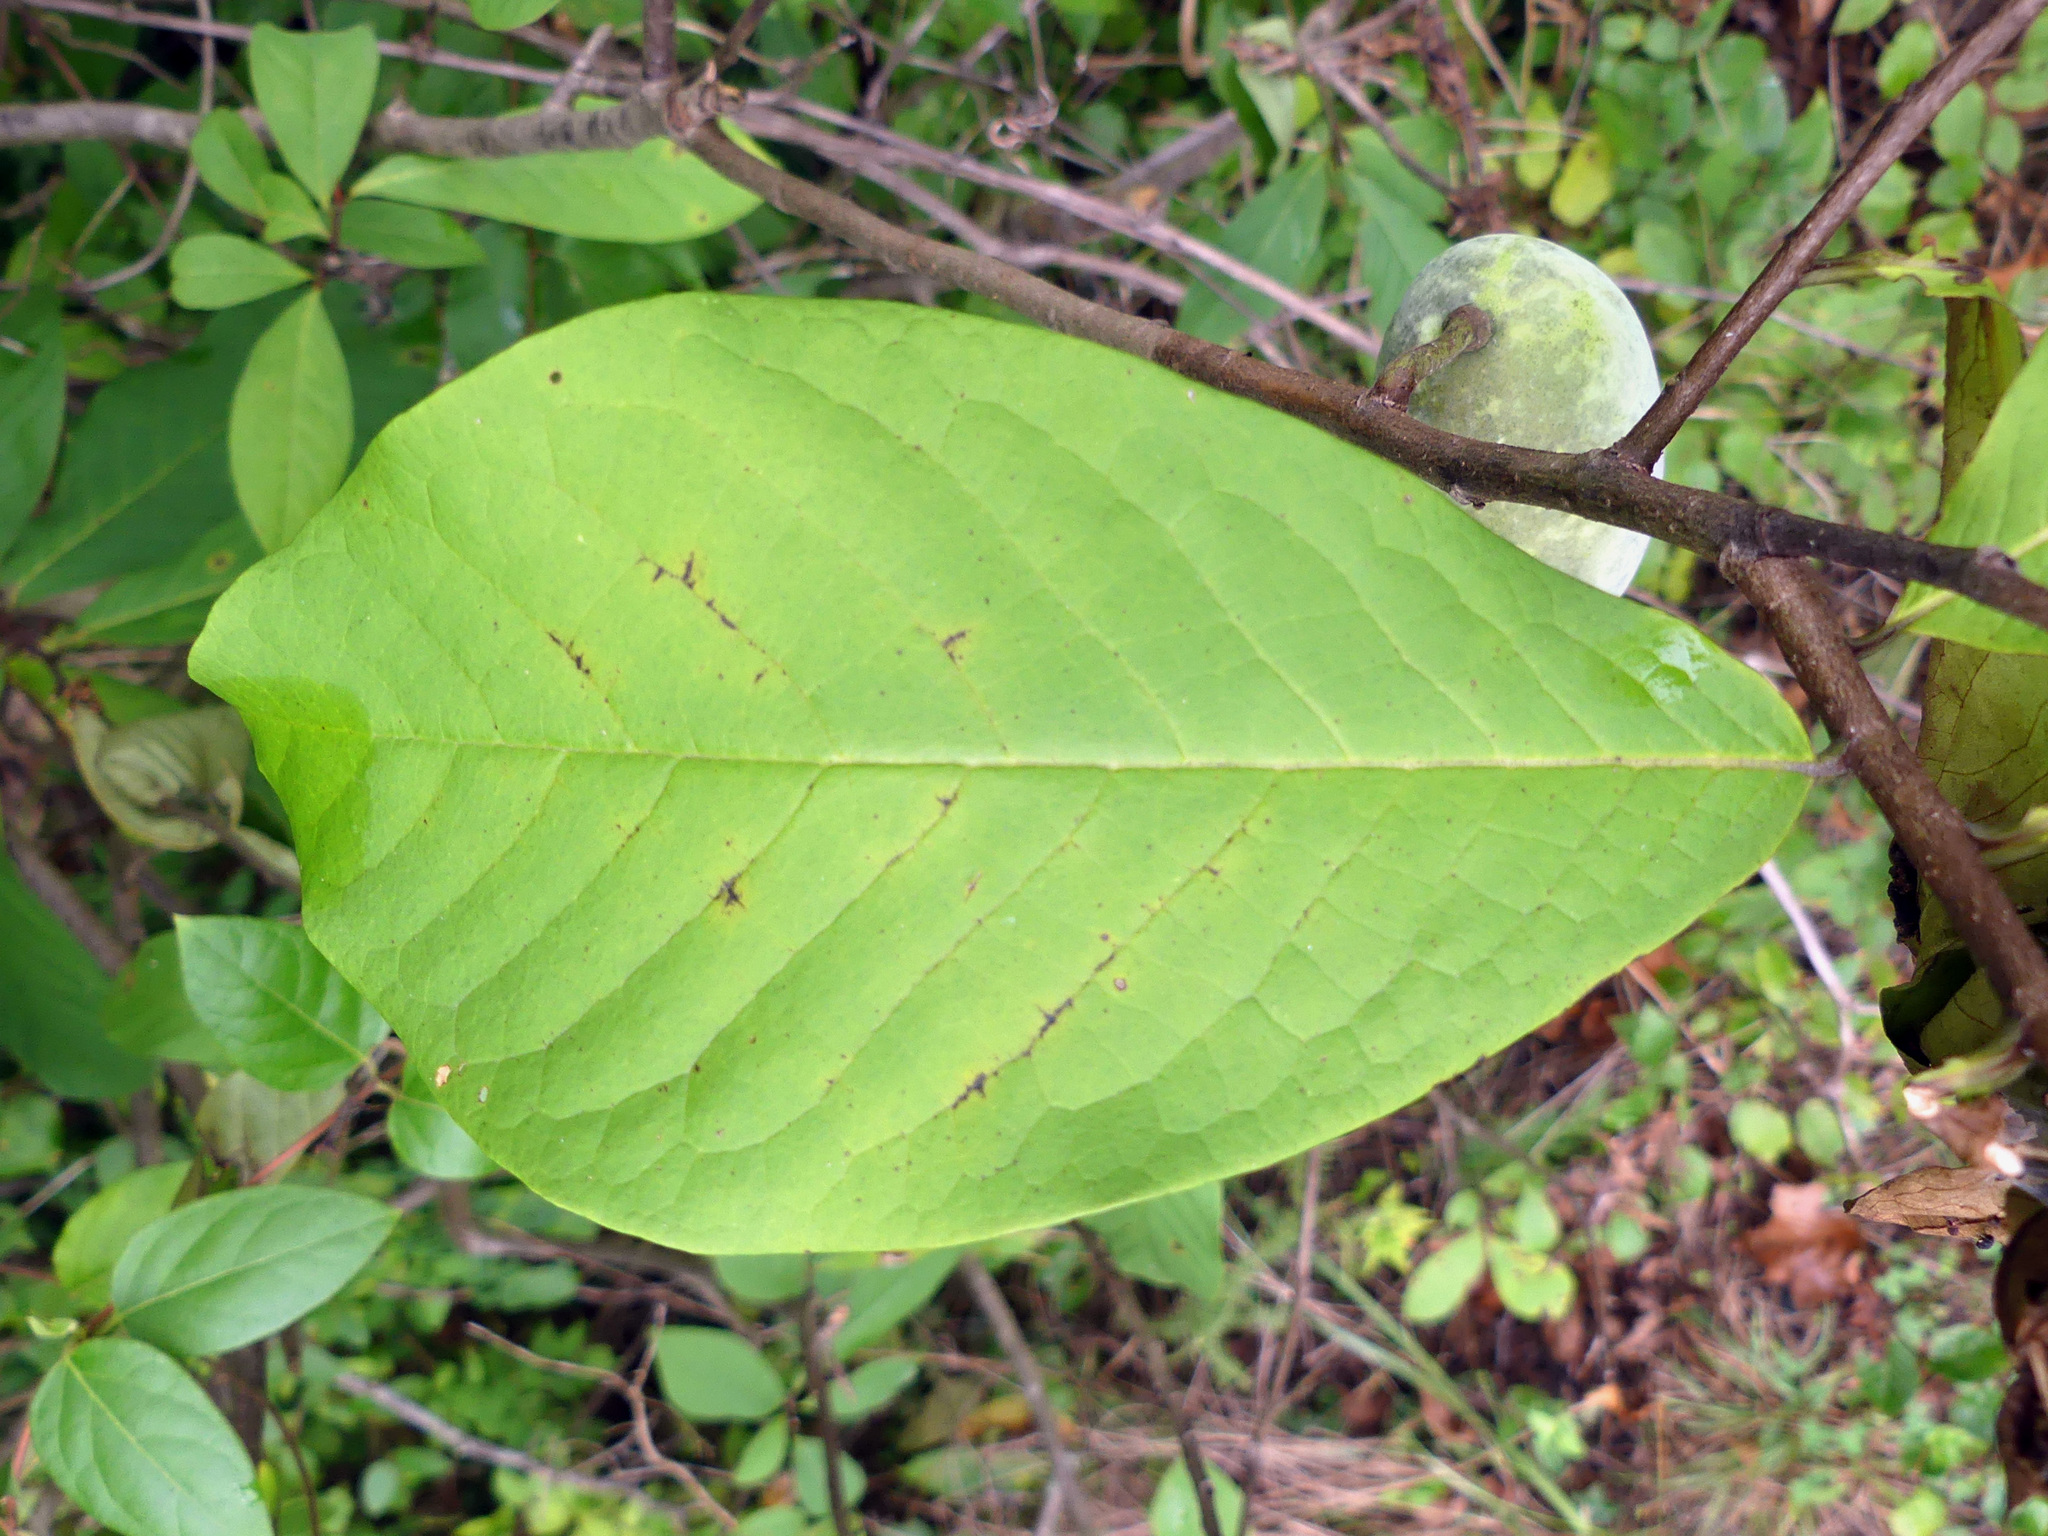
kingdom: Plantae
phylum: Tracheophyta
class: Magnoliopsida
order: Magnoliales
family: Annonaceae
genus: Asimina
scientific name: Asimina triloba
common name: Dog-banana
